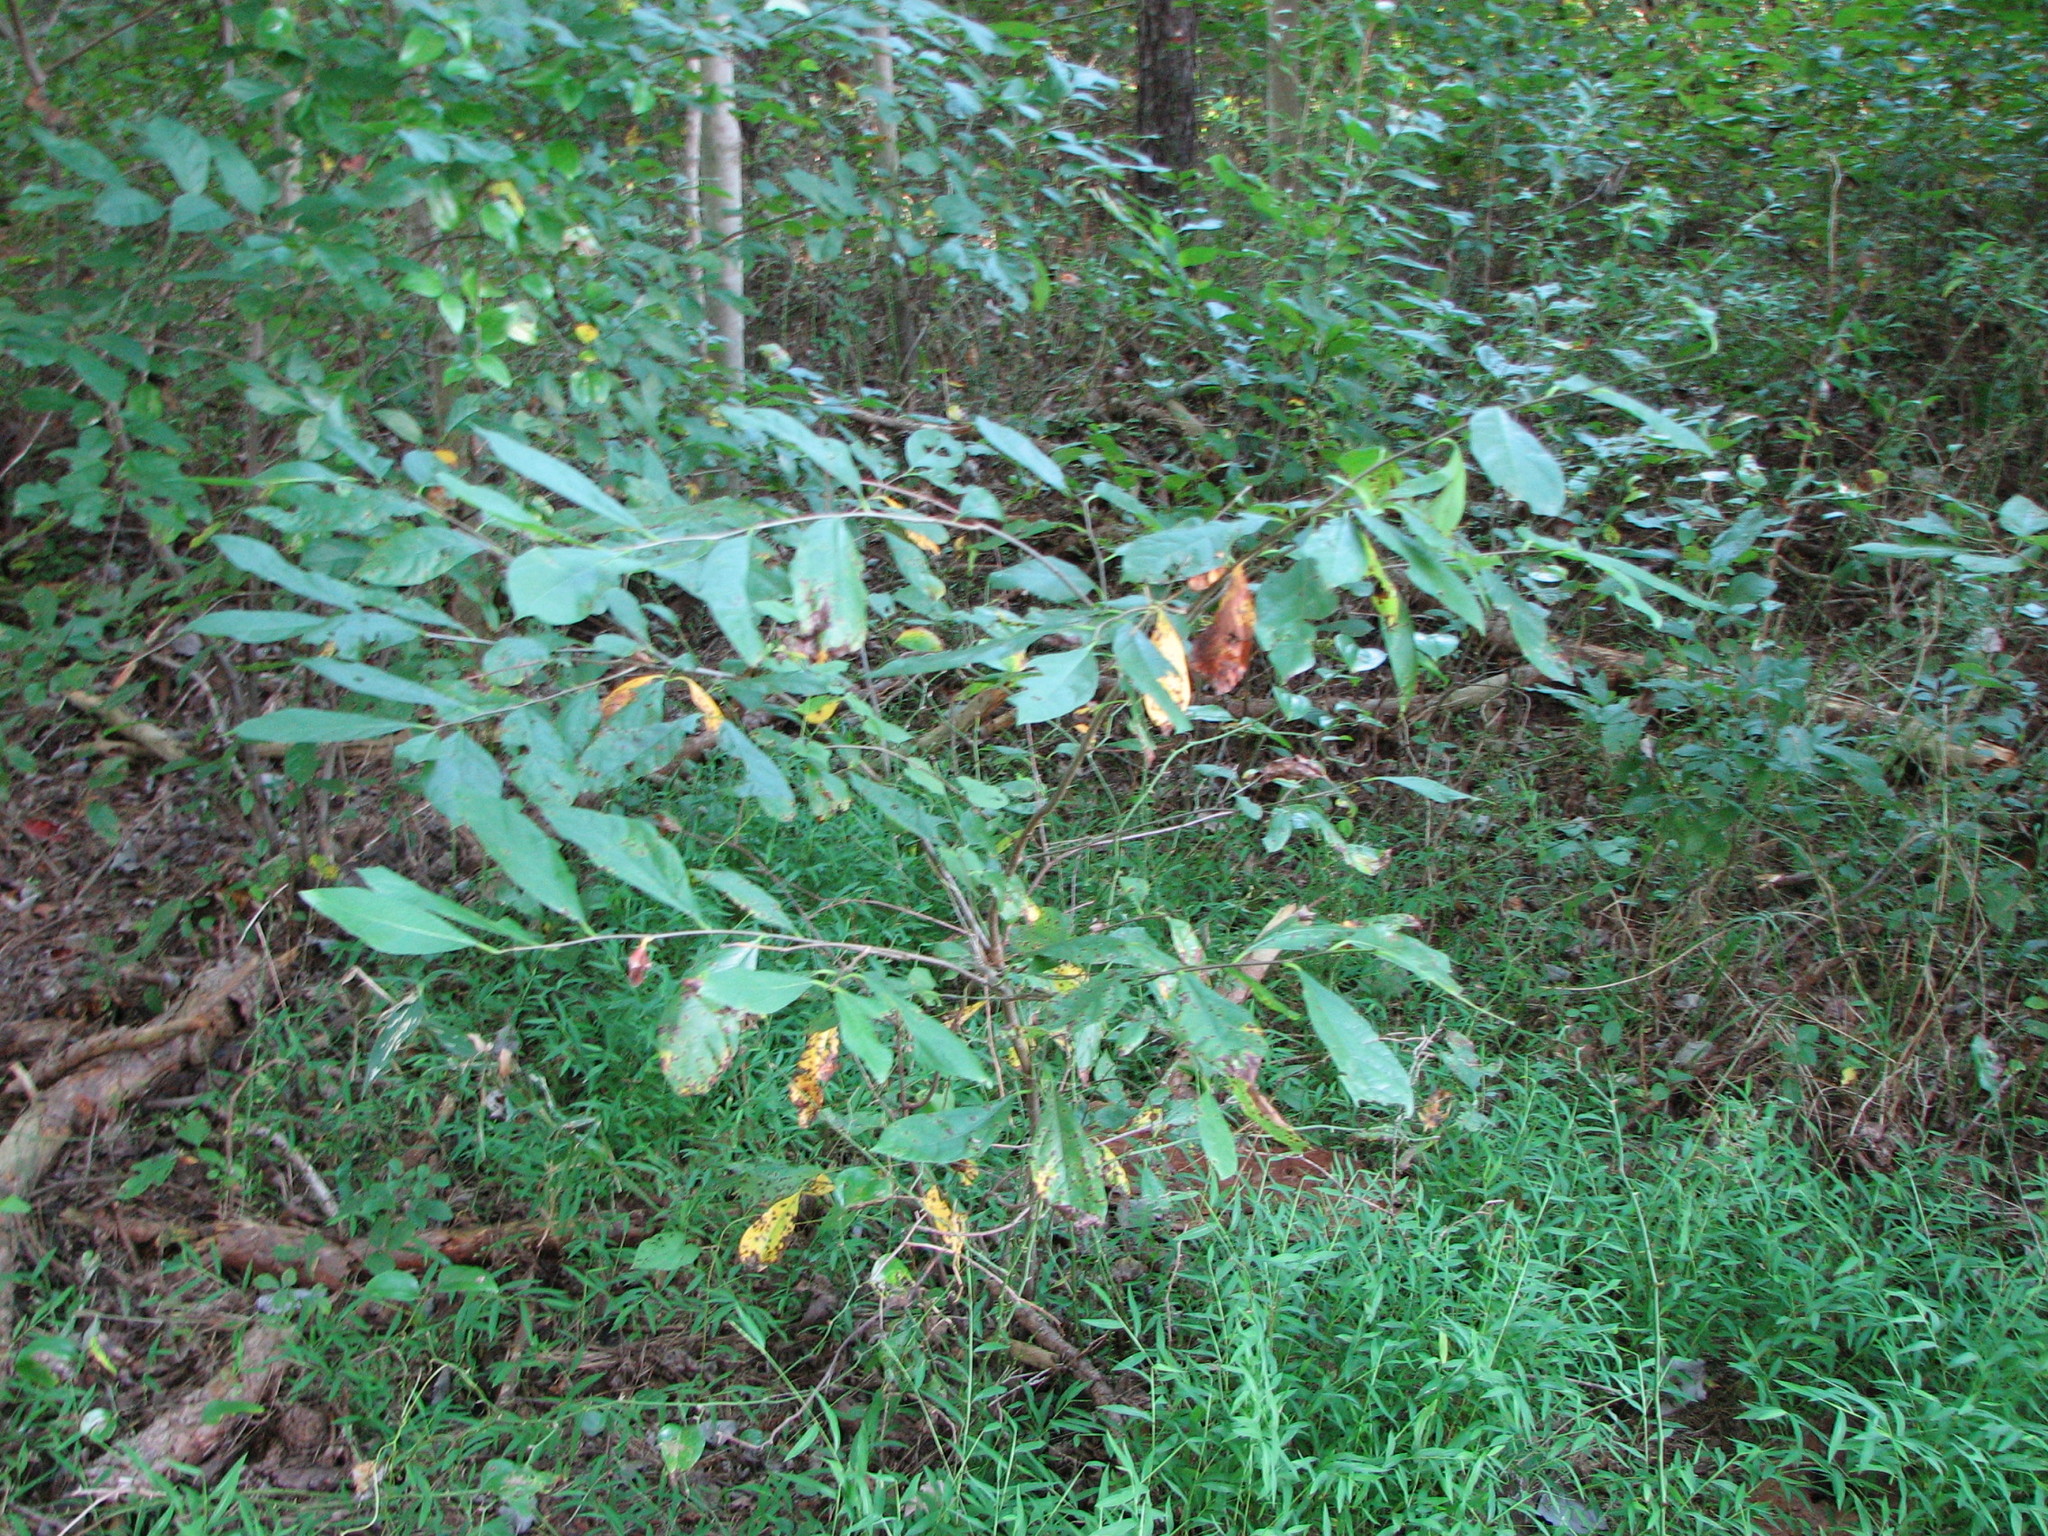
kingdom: Plantae
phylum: Tracheophyta
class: Magnoliopsida
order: Laurales
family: Lauraceae
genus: Lindera
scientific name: Lindera benzoin
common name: Spicebush
